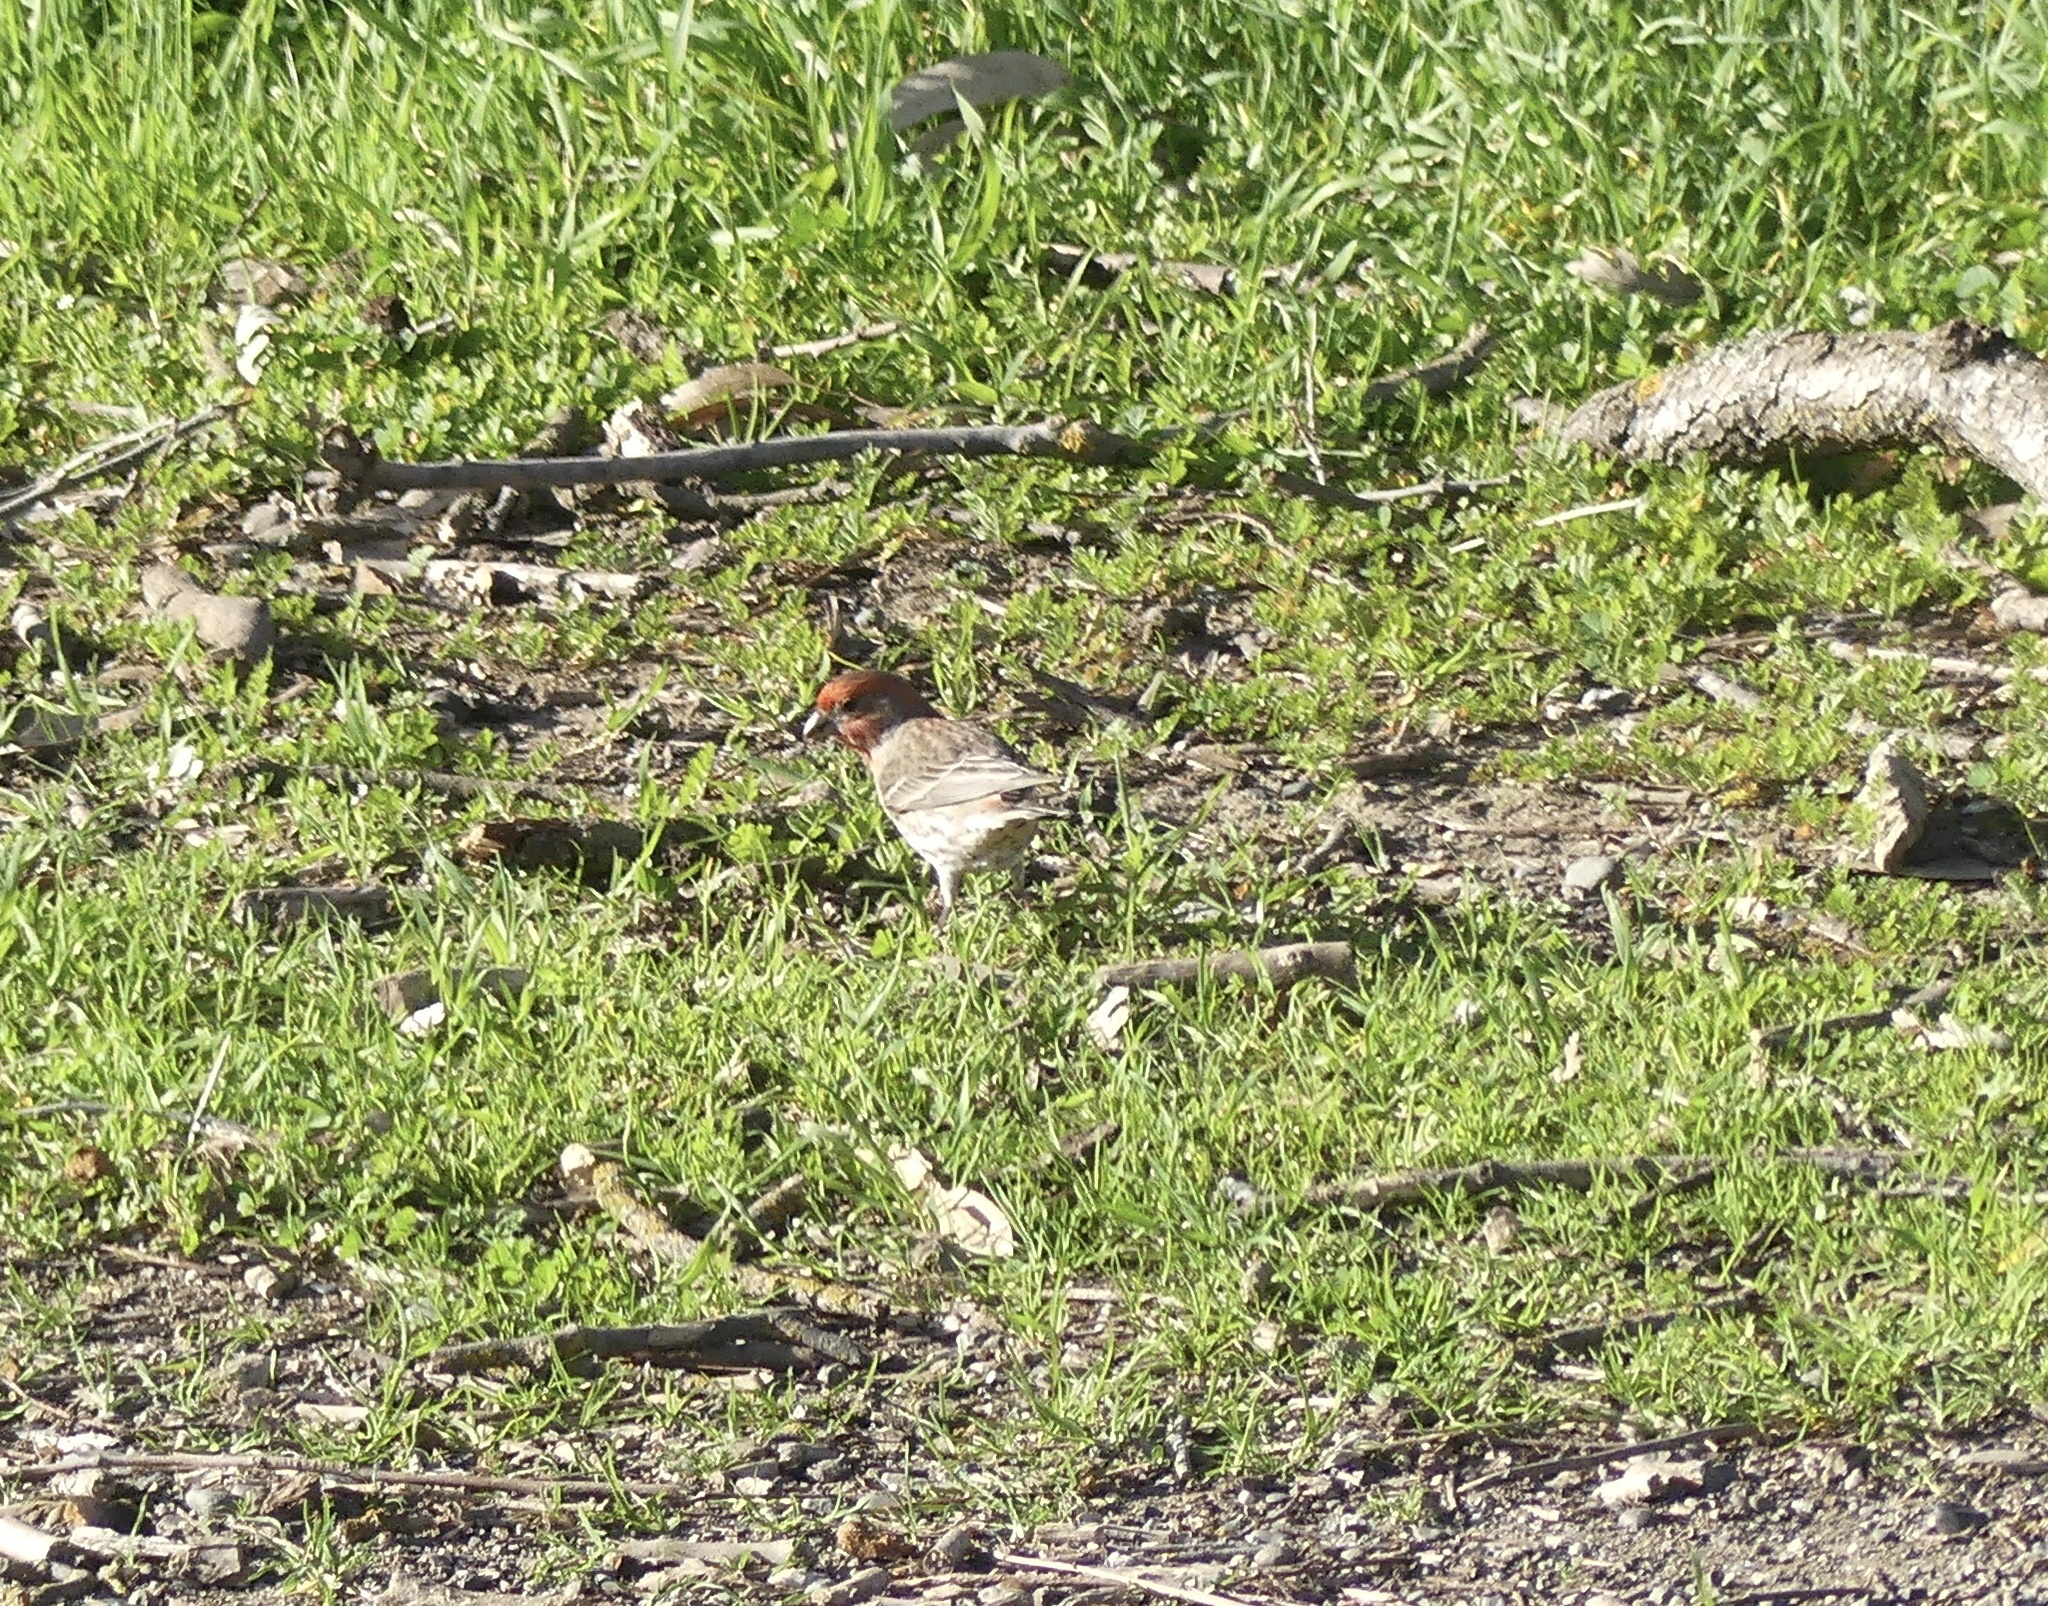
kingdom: Animalia
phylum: Chordata
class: Aves
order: Passeriformes
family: Fringillidae
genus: Haemorhous
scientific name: Haemorhous mexicanus
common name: House finch
